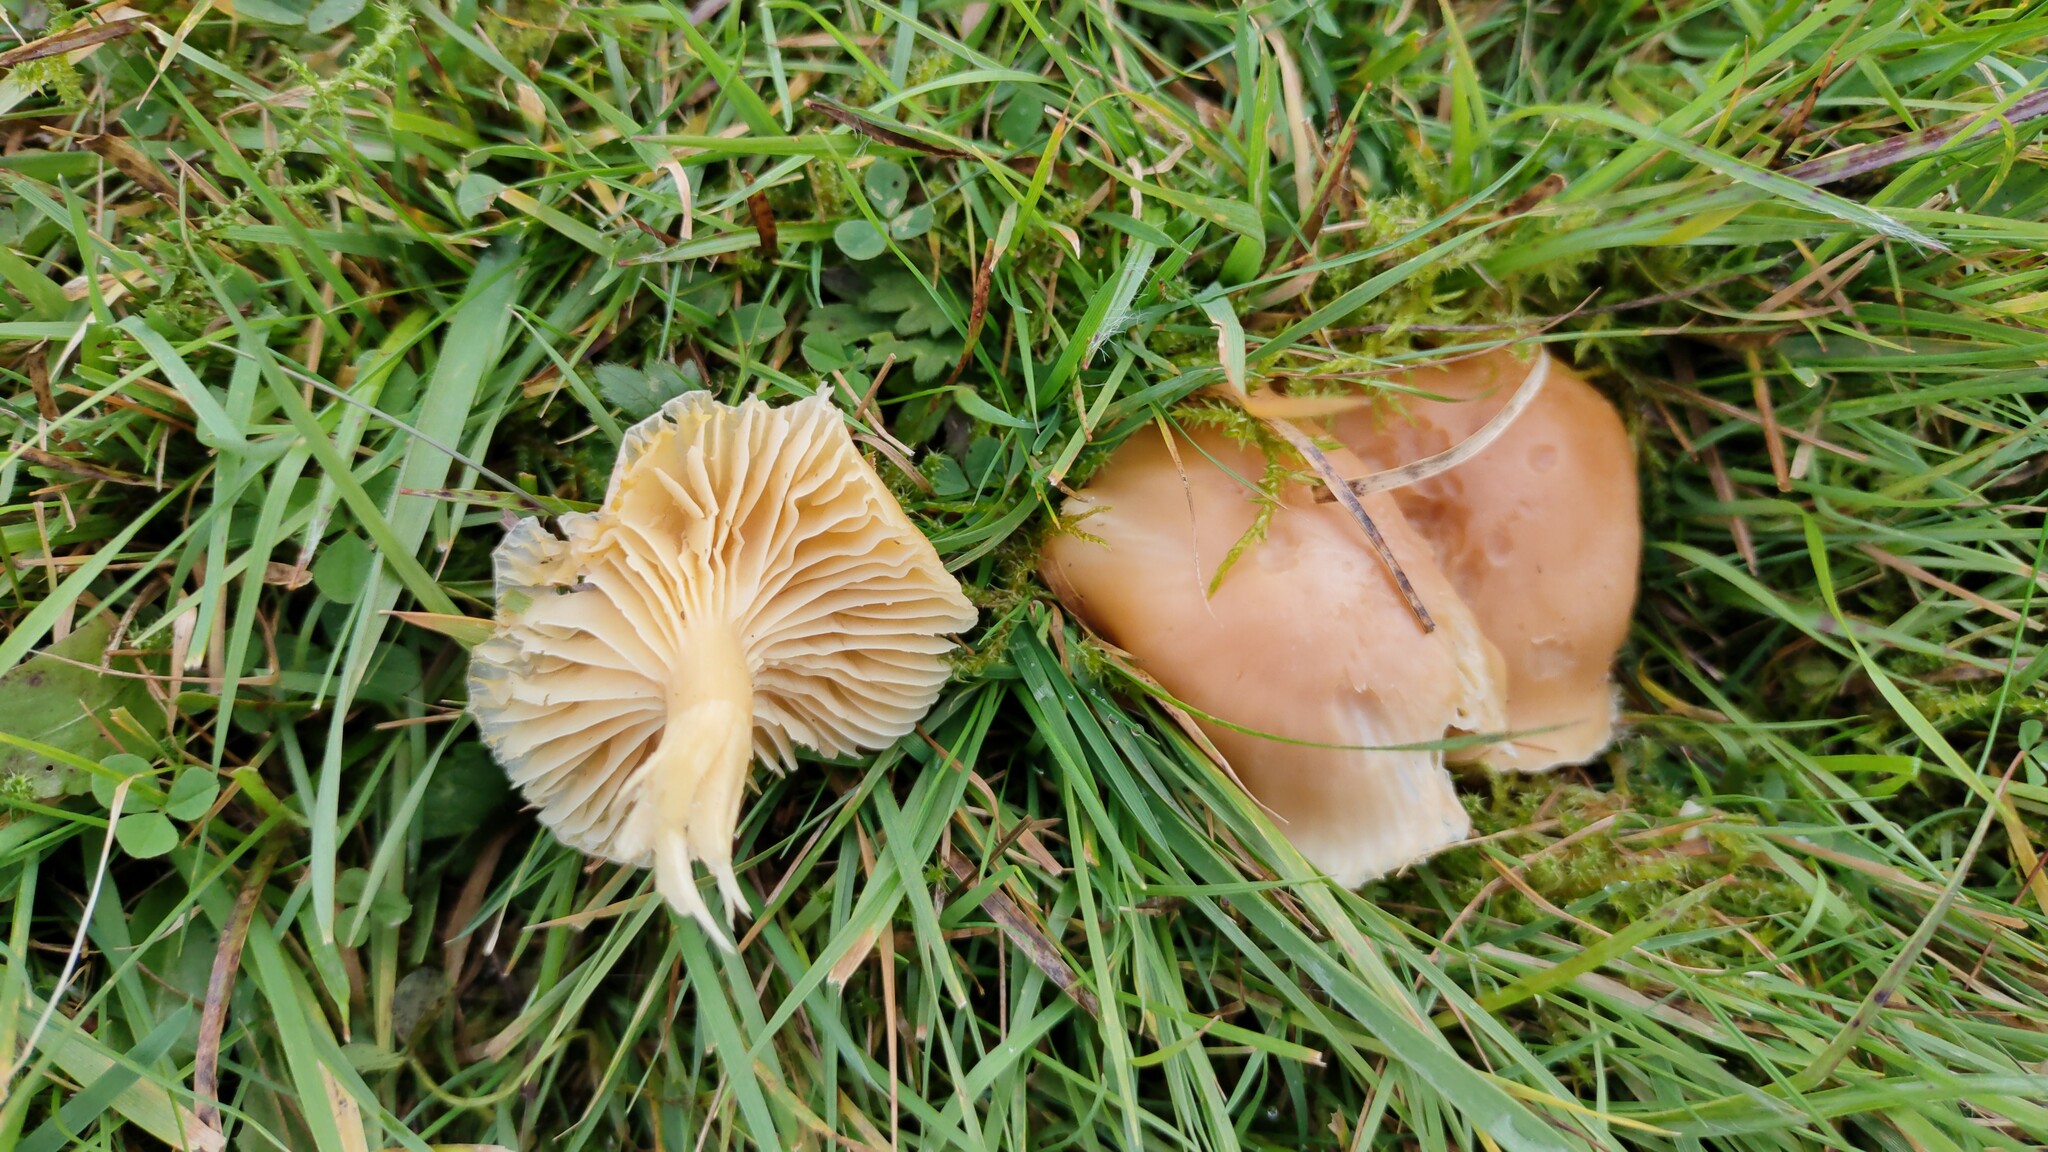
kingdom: Fungi
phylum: Basidiomycota
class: Agaricomycetes
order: Agaricales
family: Hygrophoraceae
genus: Cuphophyllus
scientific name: Cuphophyllus pratensis
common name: Meadow waxcap
